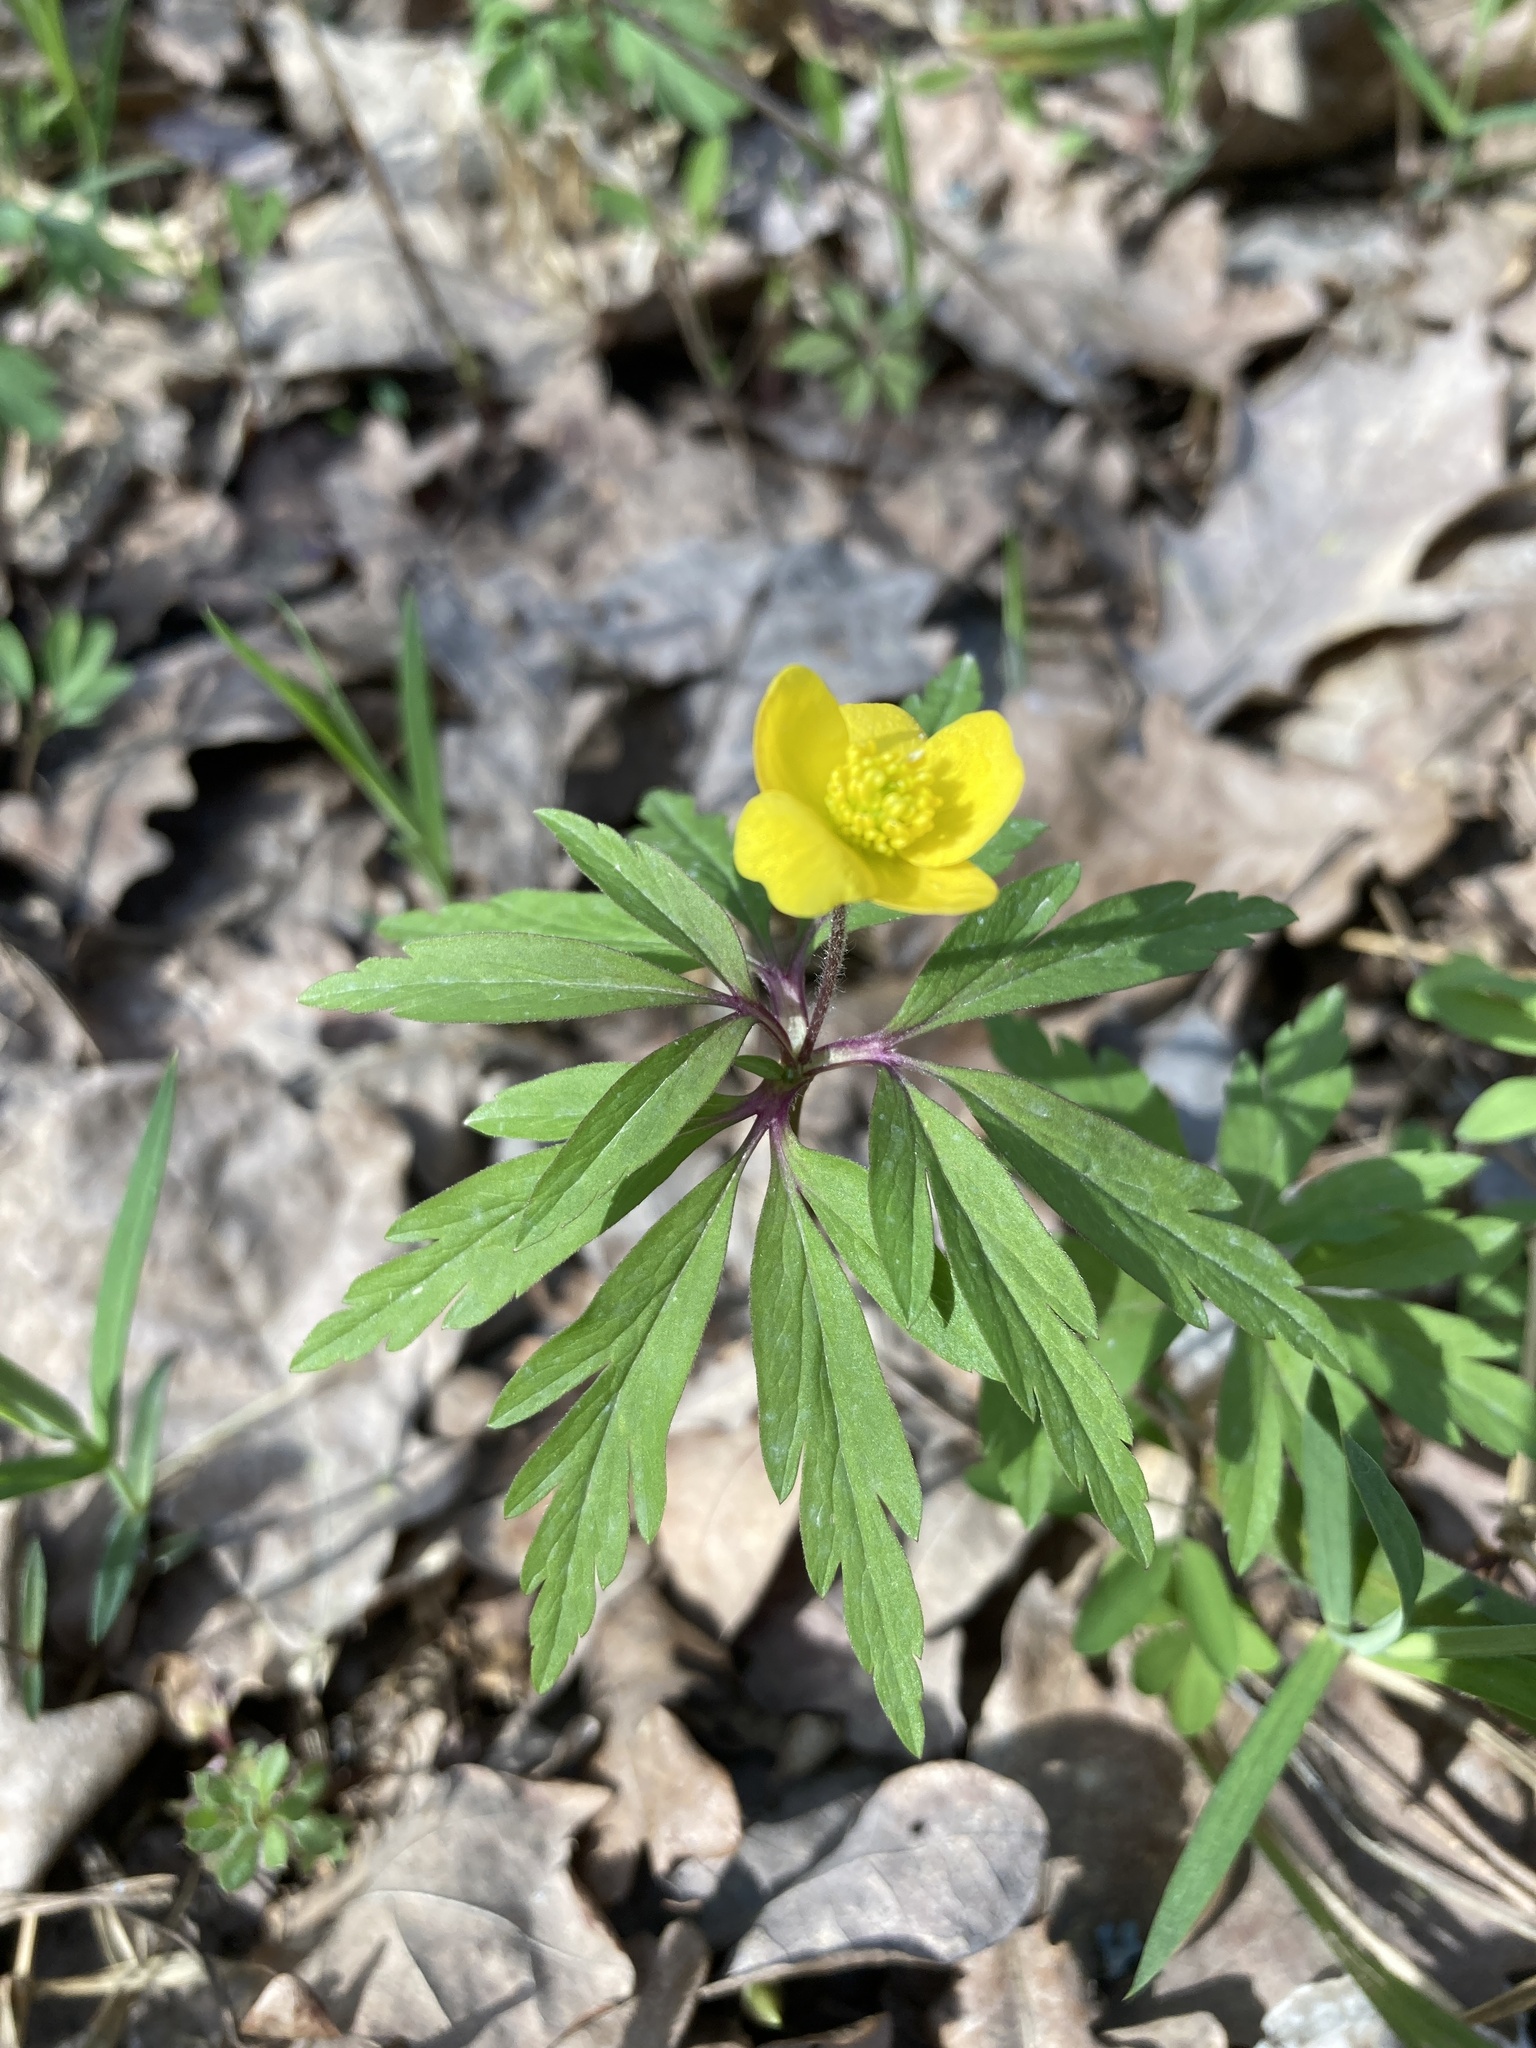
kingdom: Plantae
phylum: Tracheophyta
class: Magnoliopsida
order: Ranunculales
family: Ranunculaceae
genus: Anemone
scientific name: Anemone ranunculoides
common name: Yellow anemone
